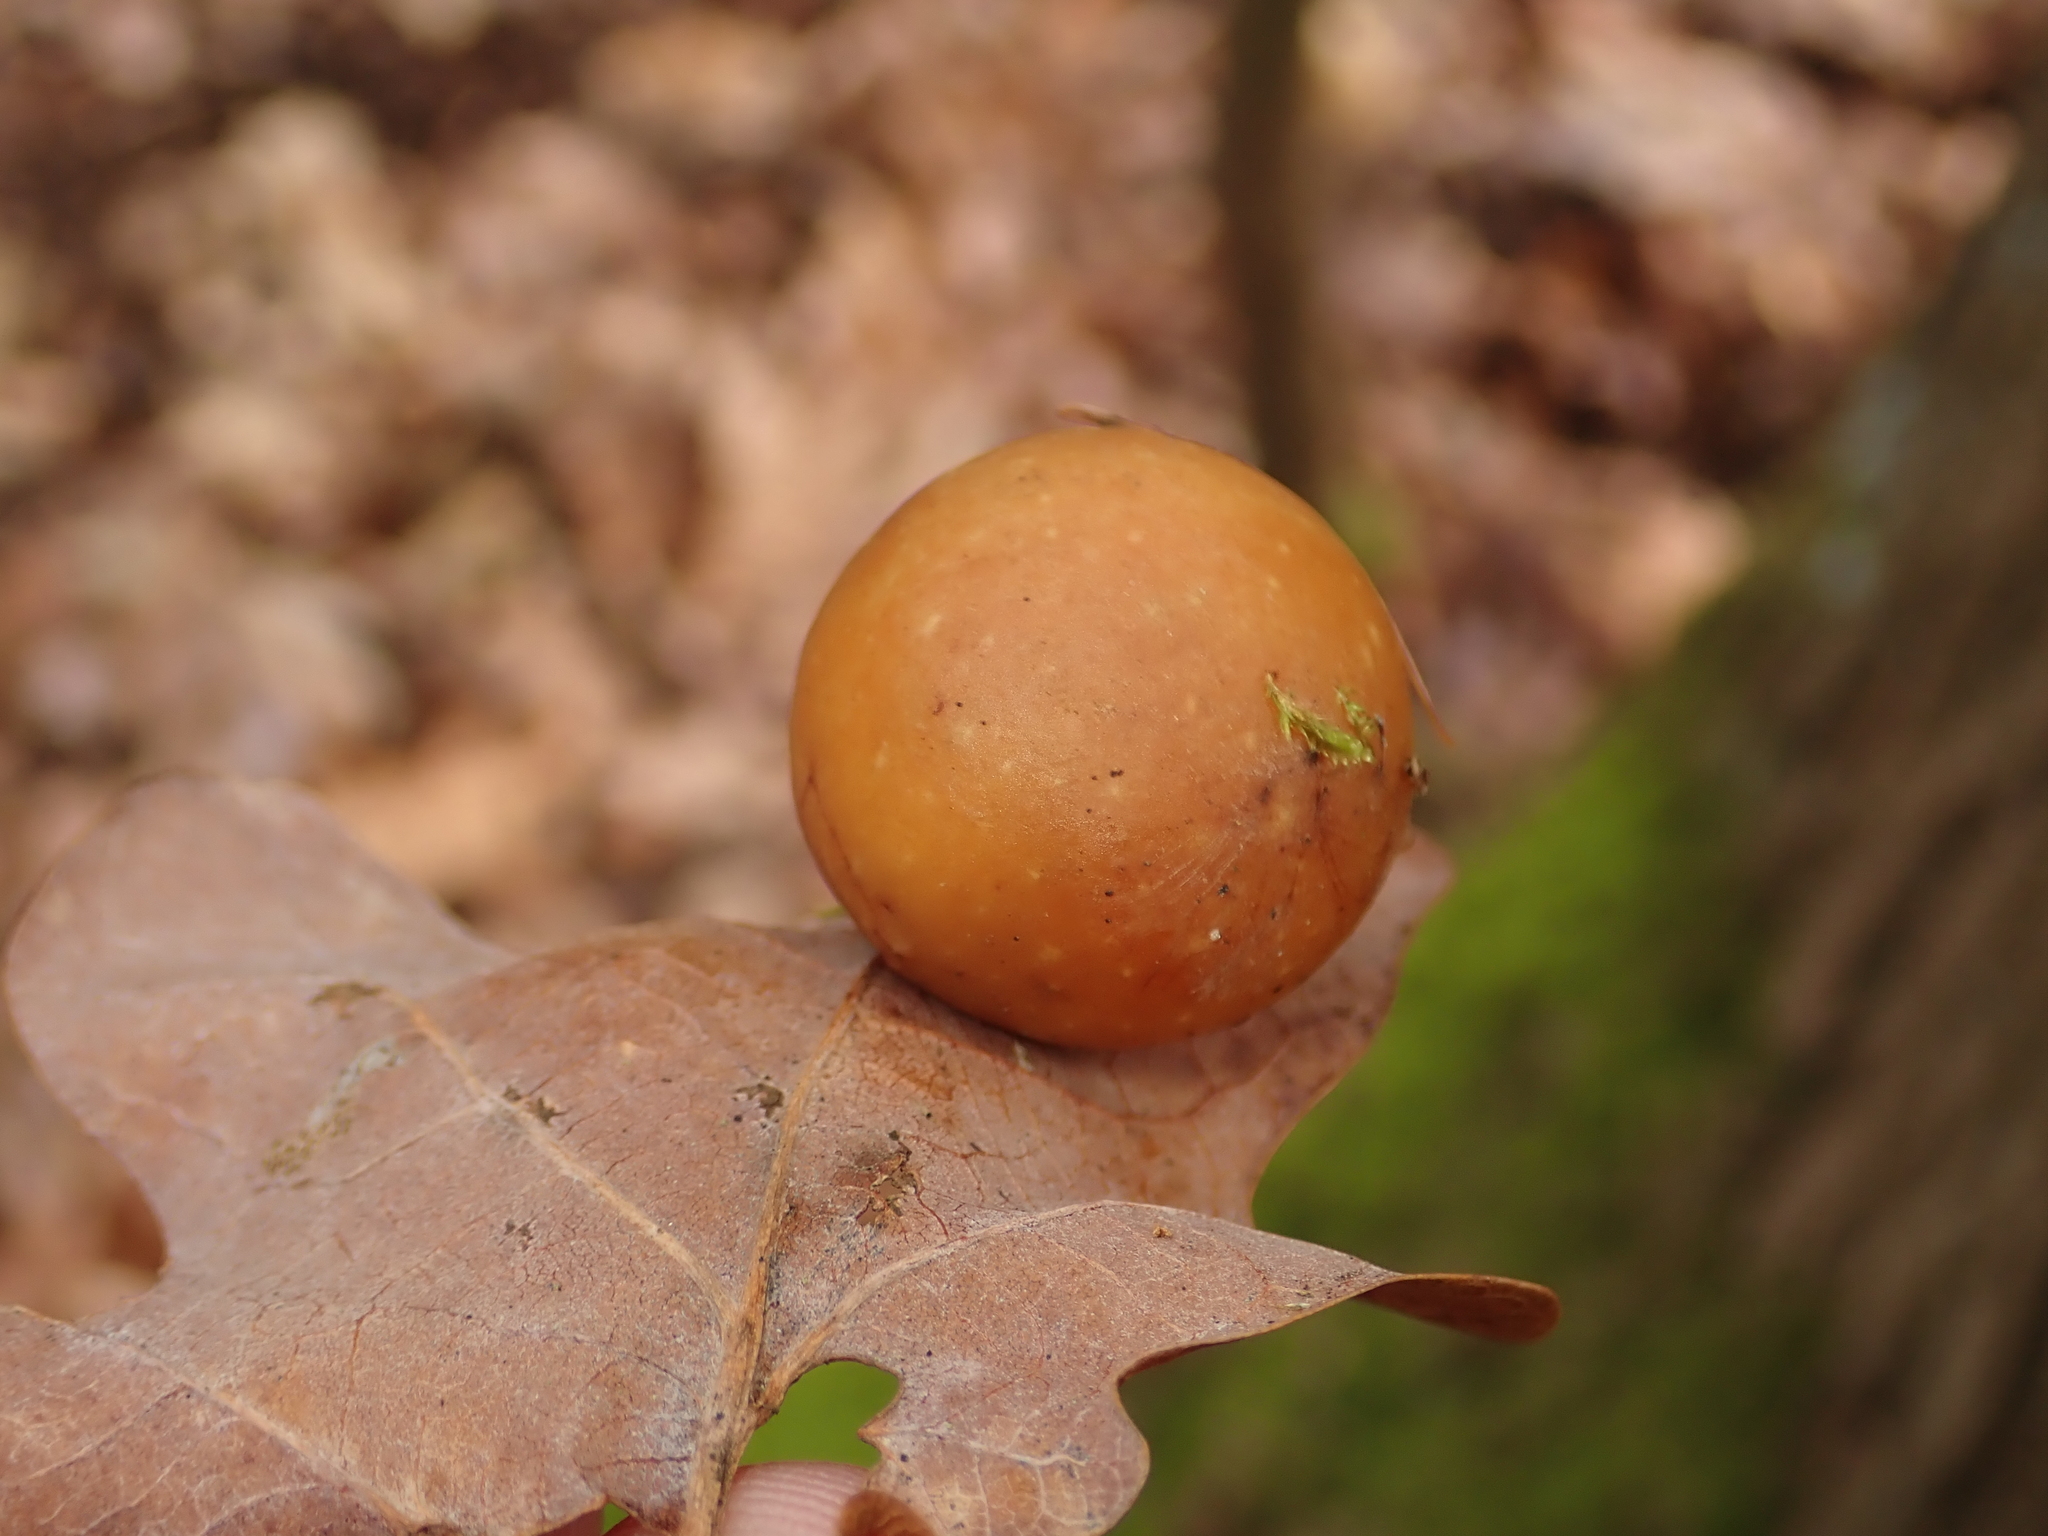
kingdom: Animalia
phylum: Arthropoda
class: Insecta
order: Hymenoptera
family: Cynipidae
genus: Cynips
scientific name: Cynips quercusfolii
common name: Cherry gall
